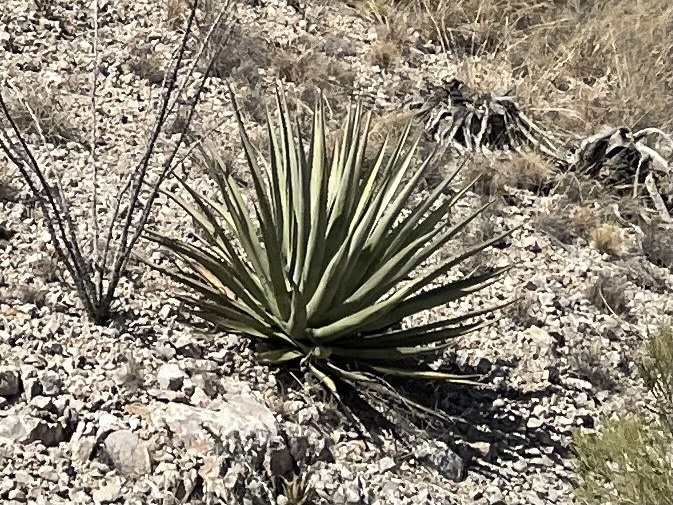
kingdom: Plantae
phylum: Tracheophyta
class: Liliopsida
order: Asparagales
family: Asparagaceae
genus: Agave
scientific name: Agave palmeri
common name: Palmer agave
